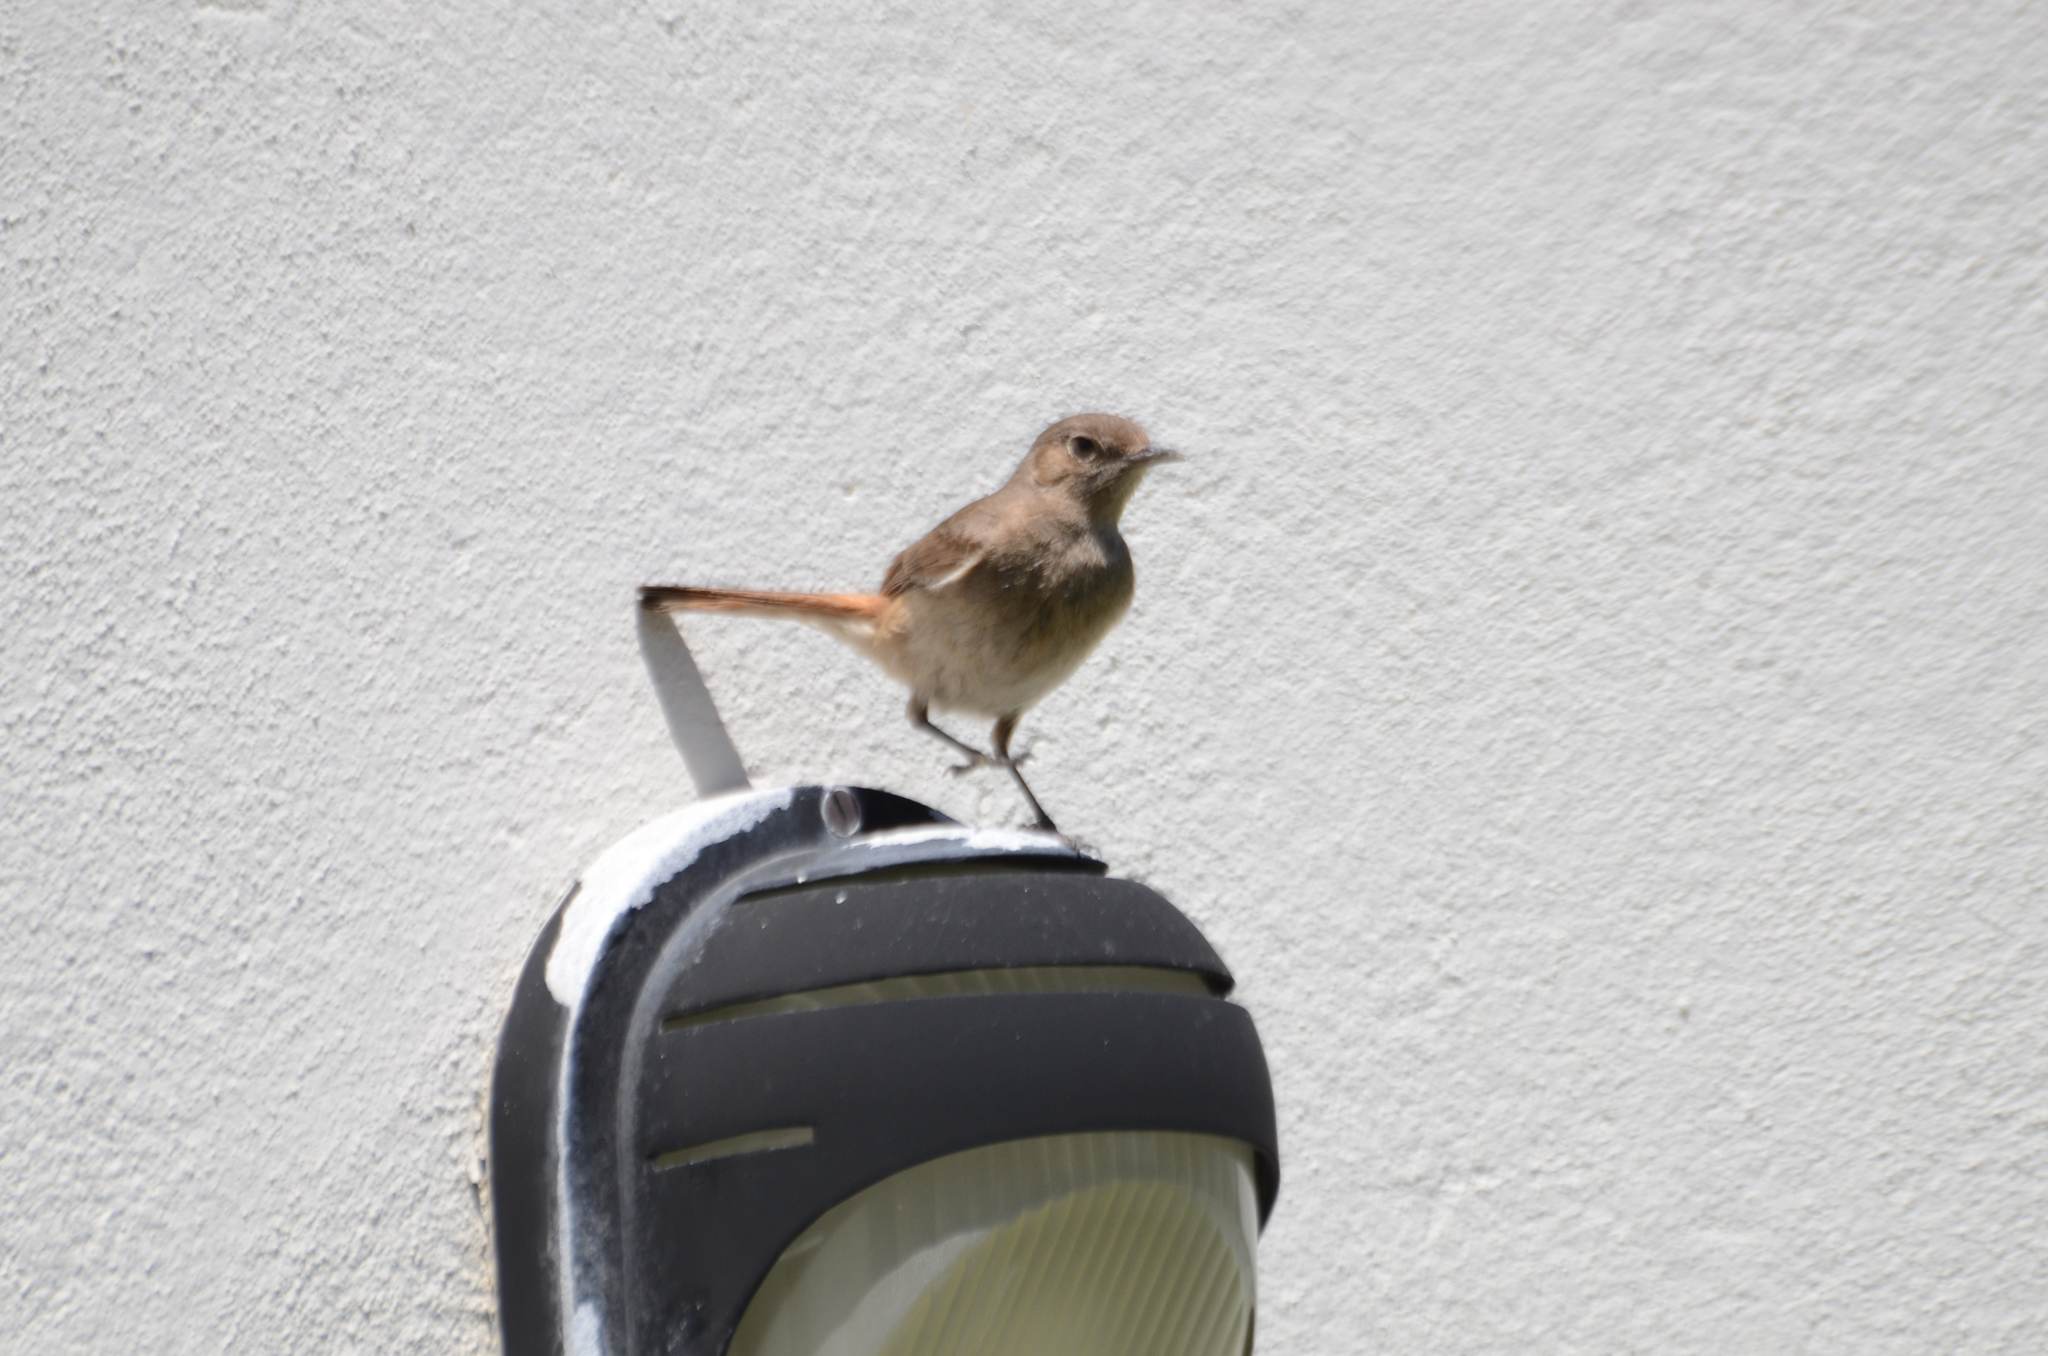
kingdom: Animalia
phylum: Chordata
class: Aves
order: Passeriformes
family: Muscicapidae
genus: Oenanthe
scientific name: Oenanthe familiaris
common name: Familiar chat
